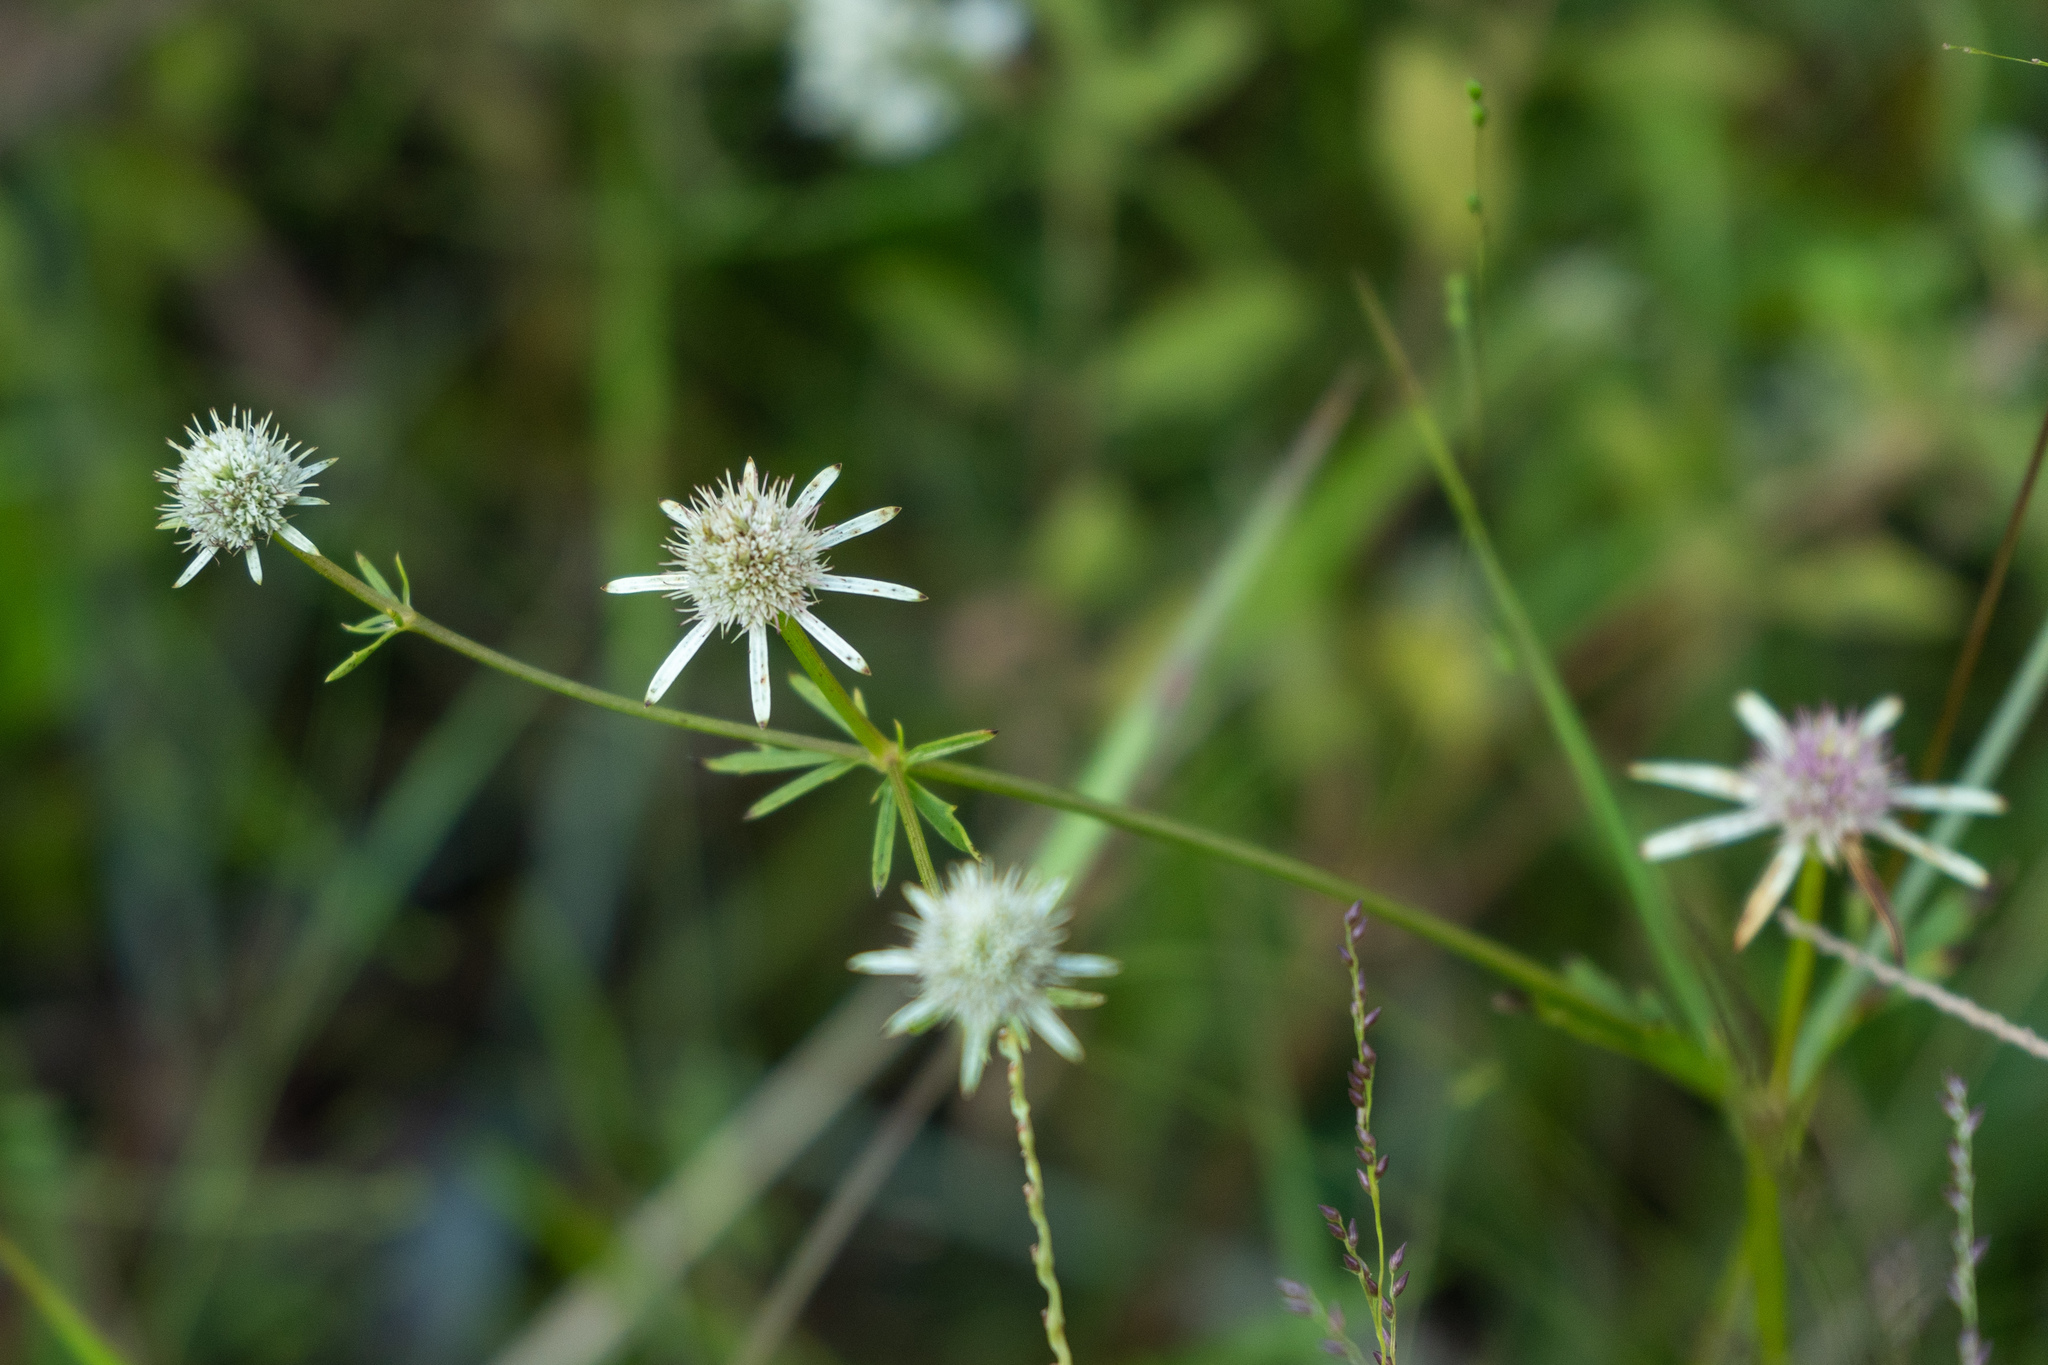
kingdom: Plantae
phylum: Tracheophyta
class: Magnoliopsida
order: Apiales
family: Apiaceae
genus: Eryngium
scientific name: Eryngium integrifolium
